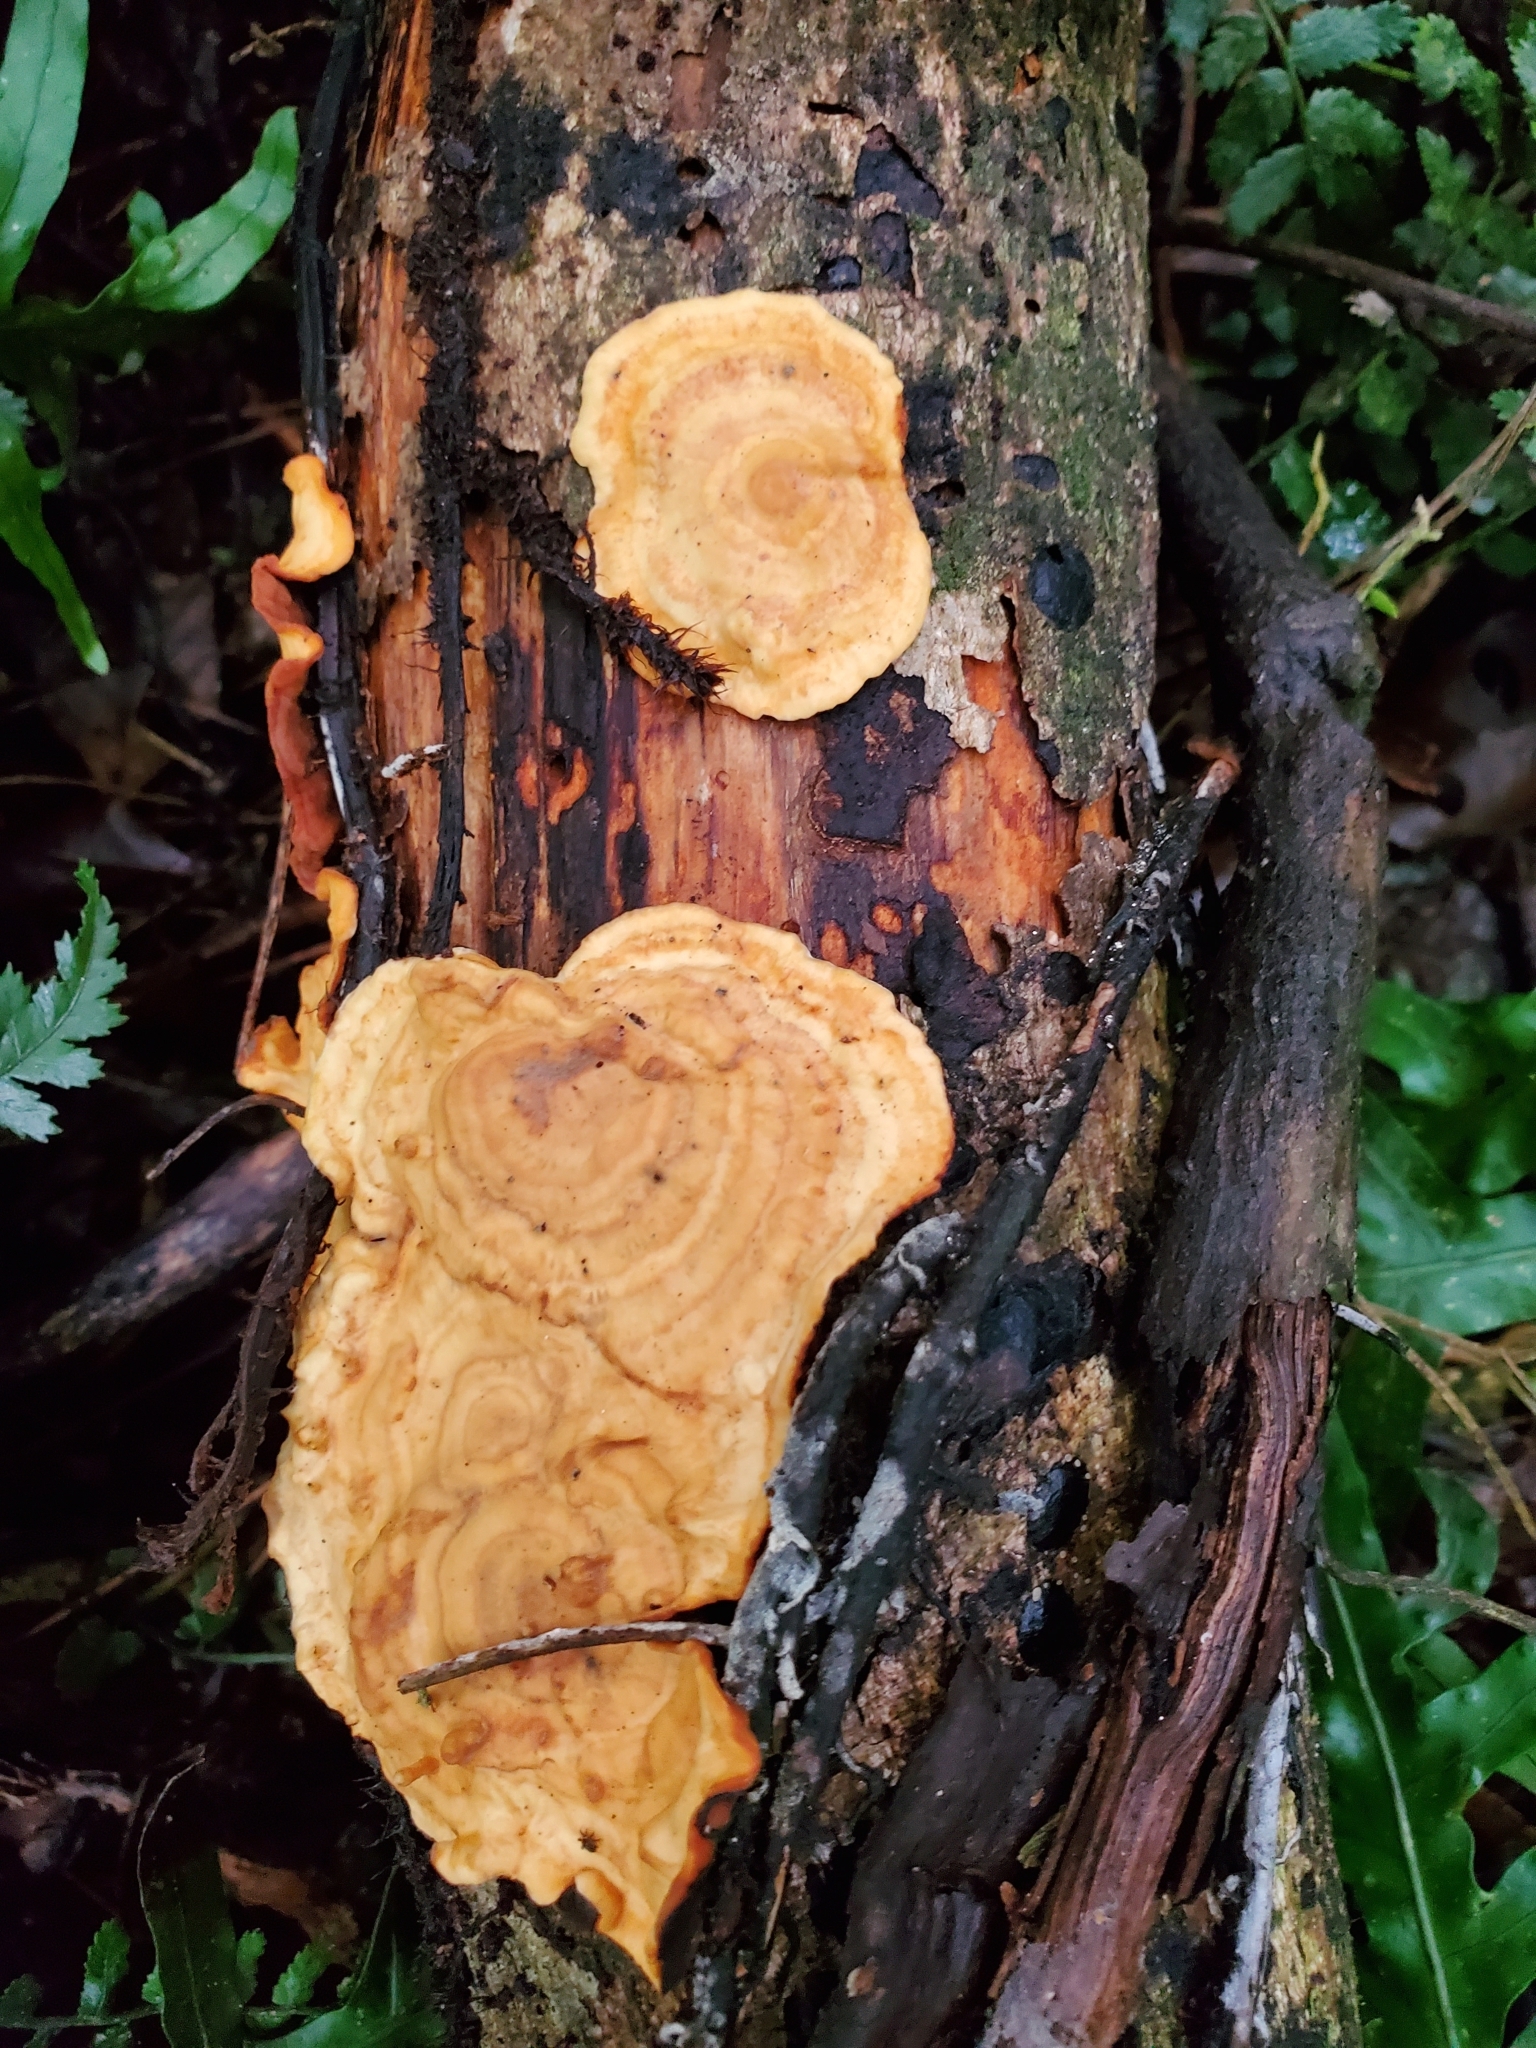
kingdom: Fungi
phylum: Basidiomycota
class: Agaricomycetes
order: Russulales
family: Stereaceae
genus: Stereum
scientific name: Stereum versicolor
